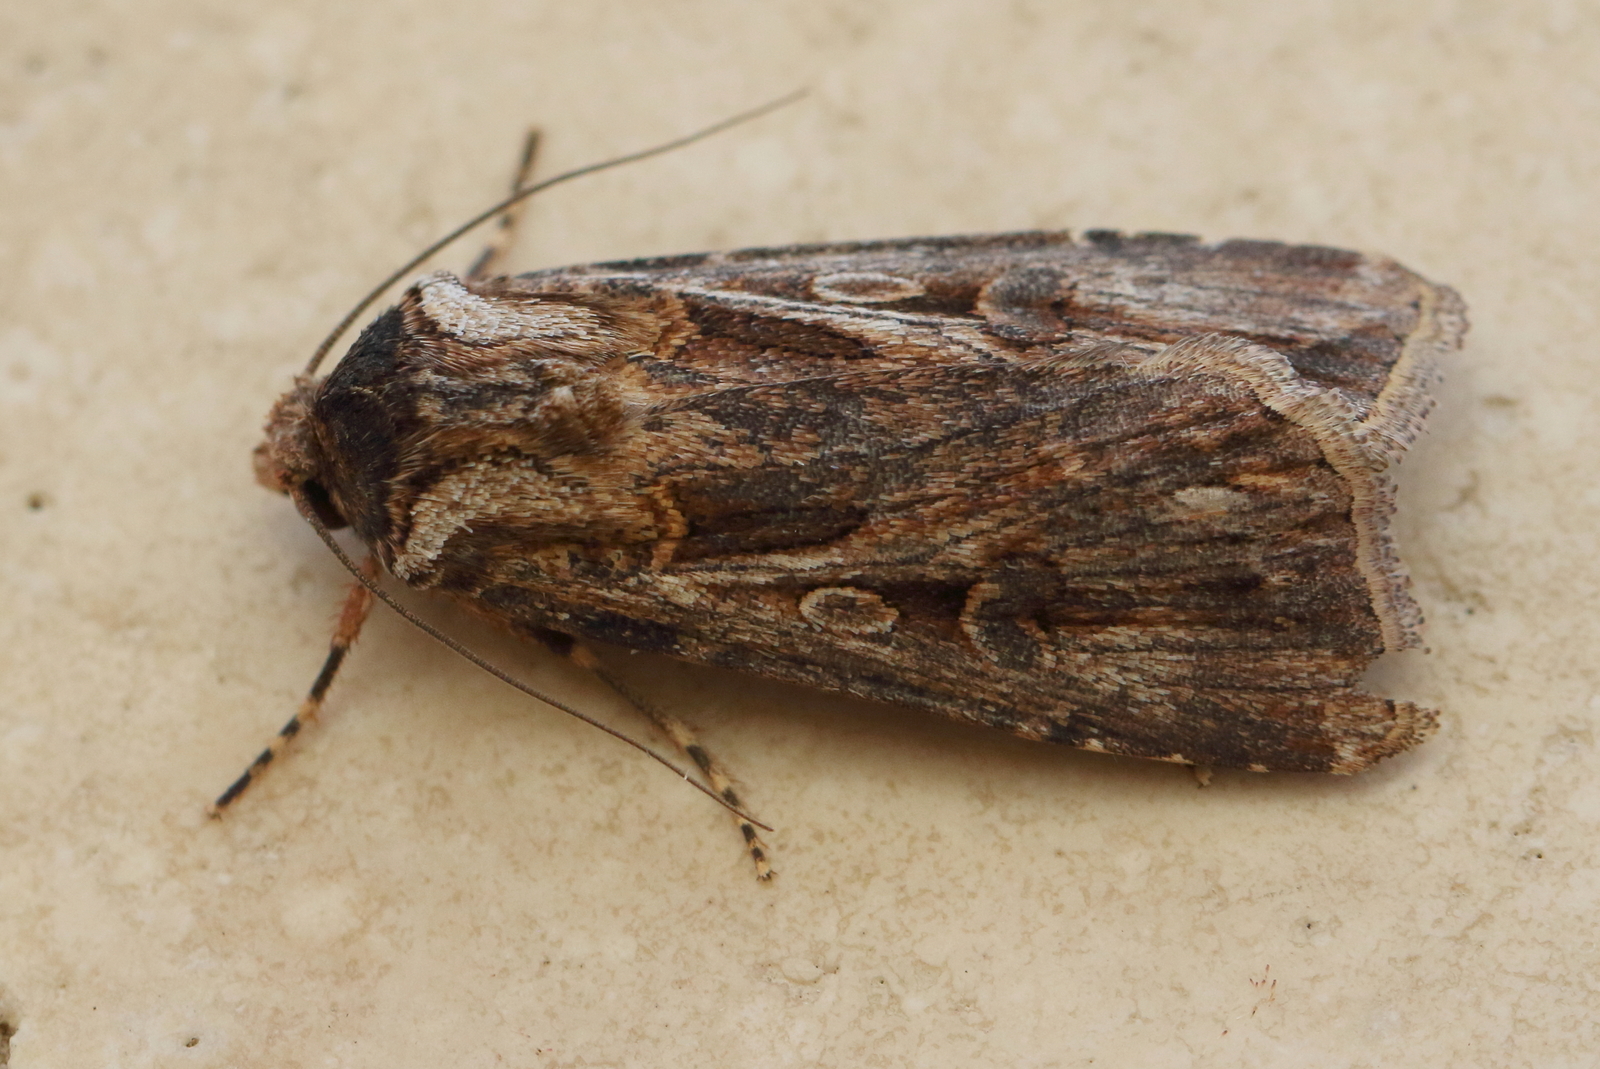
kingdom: Animalia
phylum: Arthropoda
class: Insecta
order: Lepidoptera
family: Noctuidae
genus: Agrotis
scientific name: Agrotis munda
